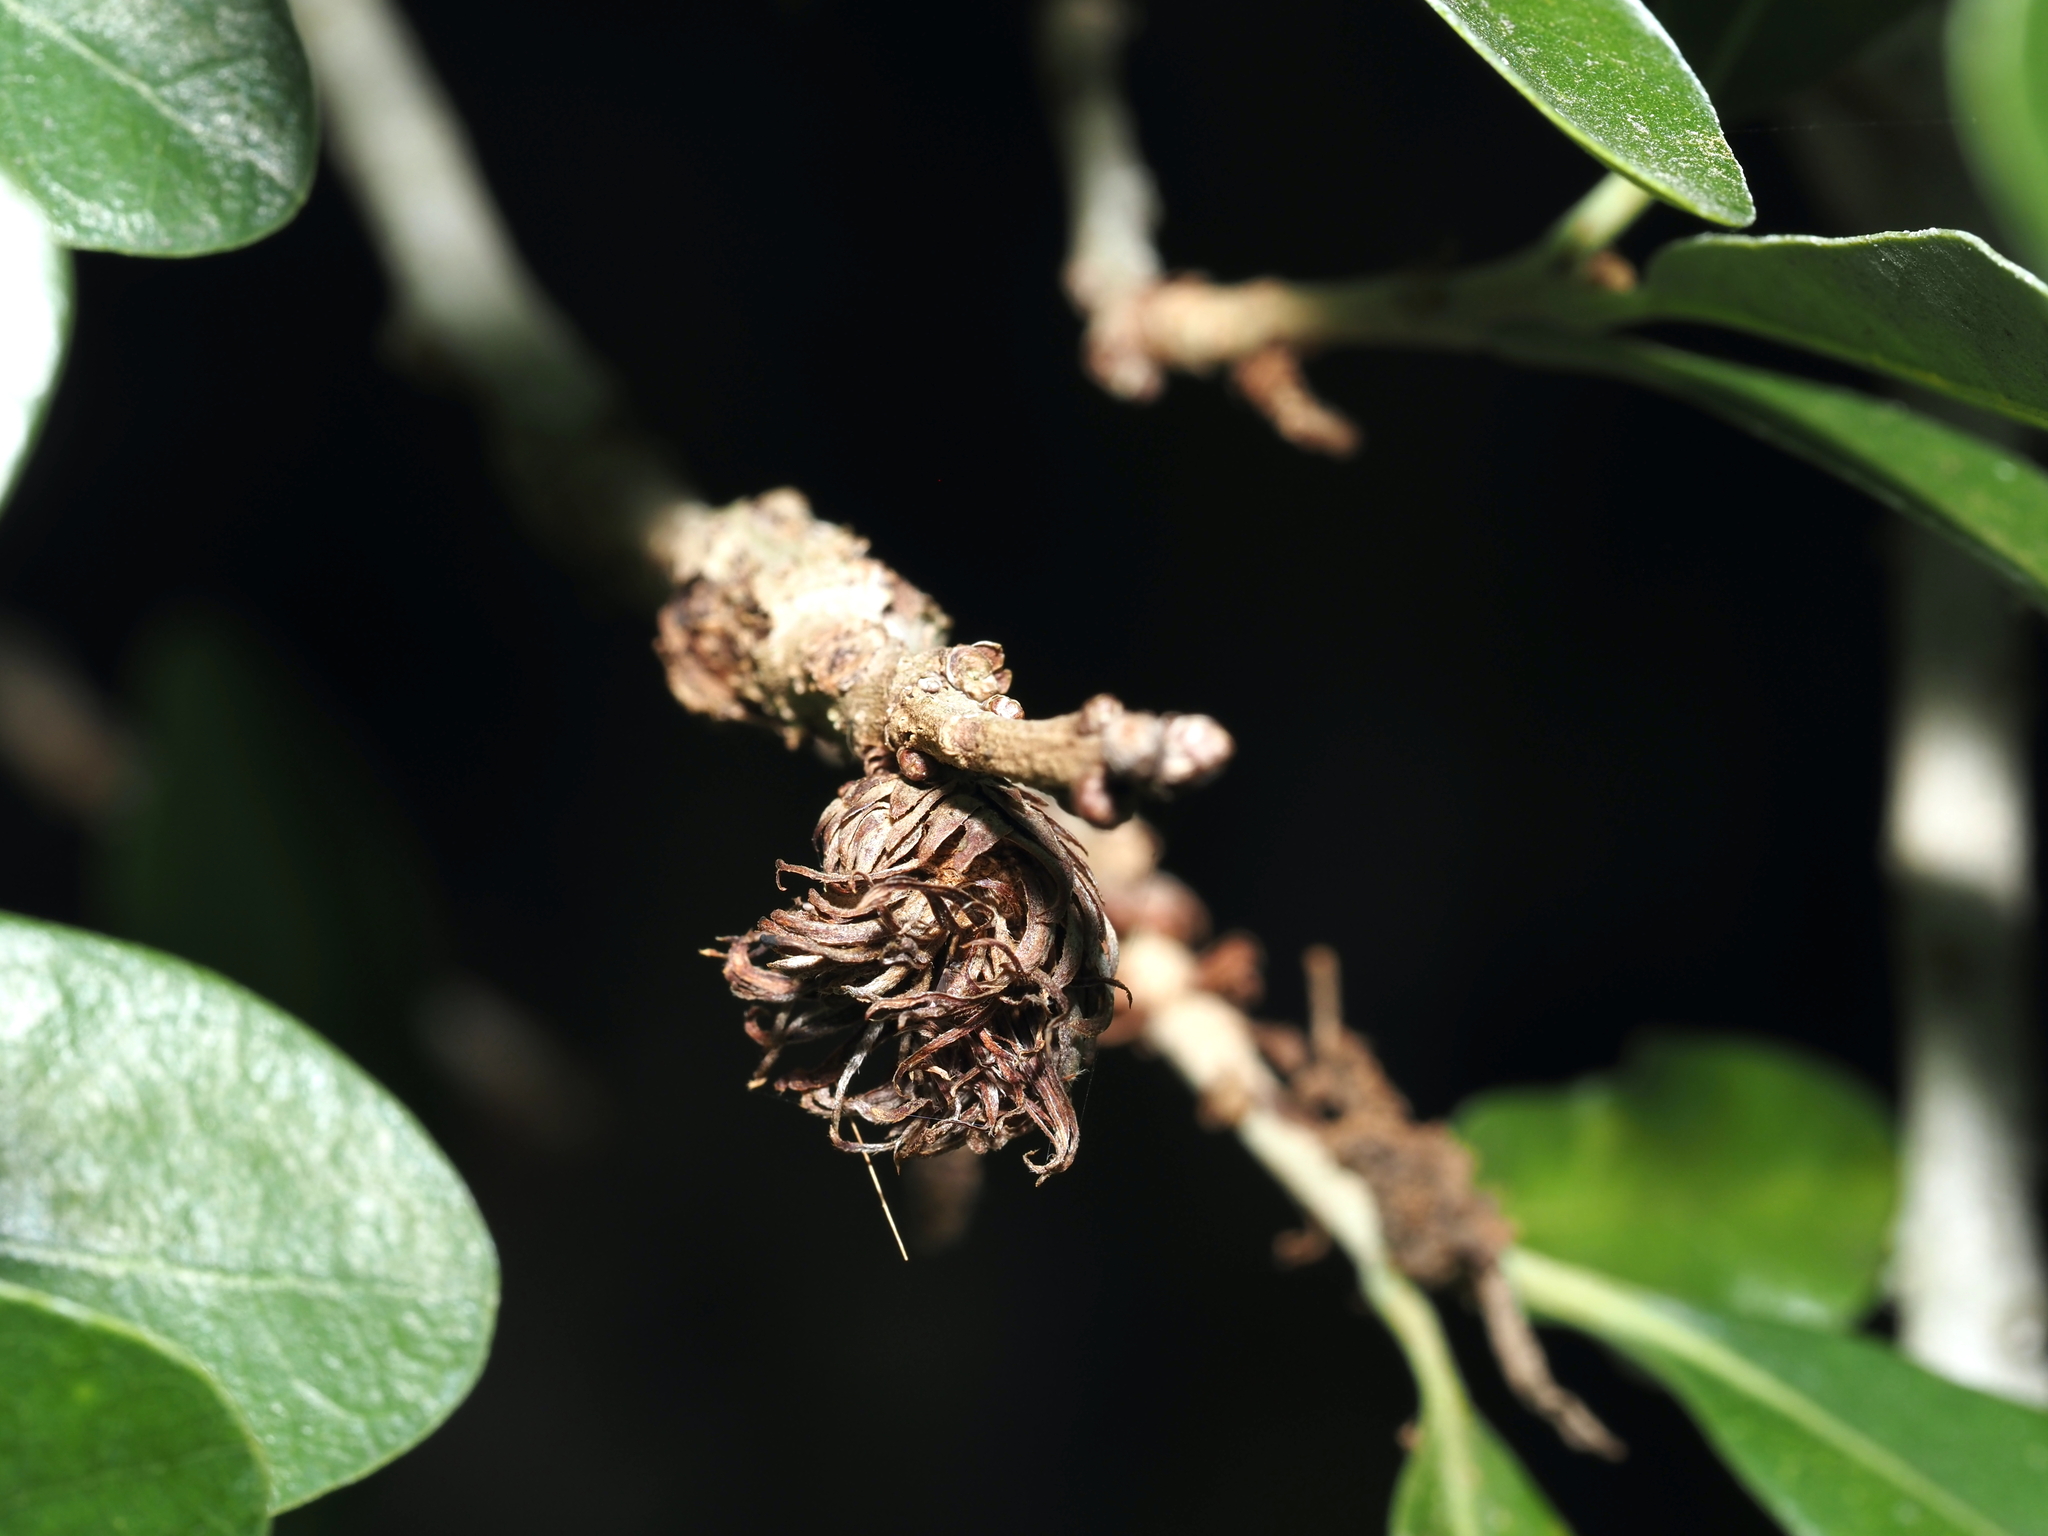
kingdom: Animalia
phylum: Arthropoda
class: Insecta
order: Hymenoptera
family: Cynipidae
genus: Andricus
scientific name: Andricus quercusfoliatus
